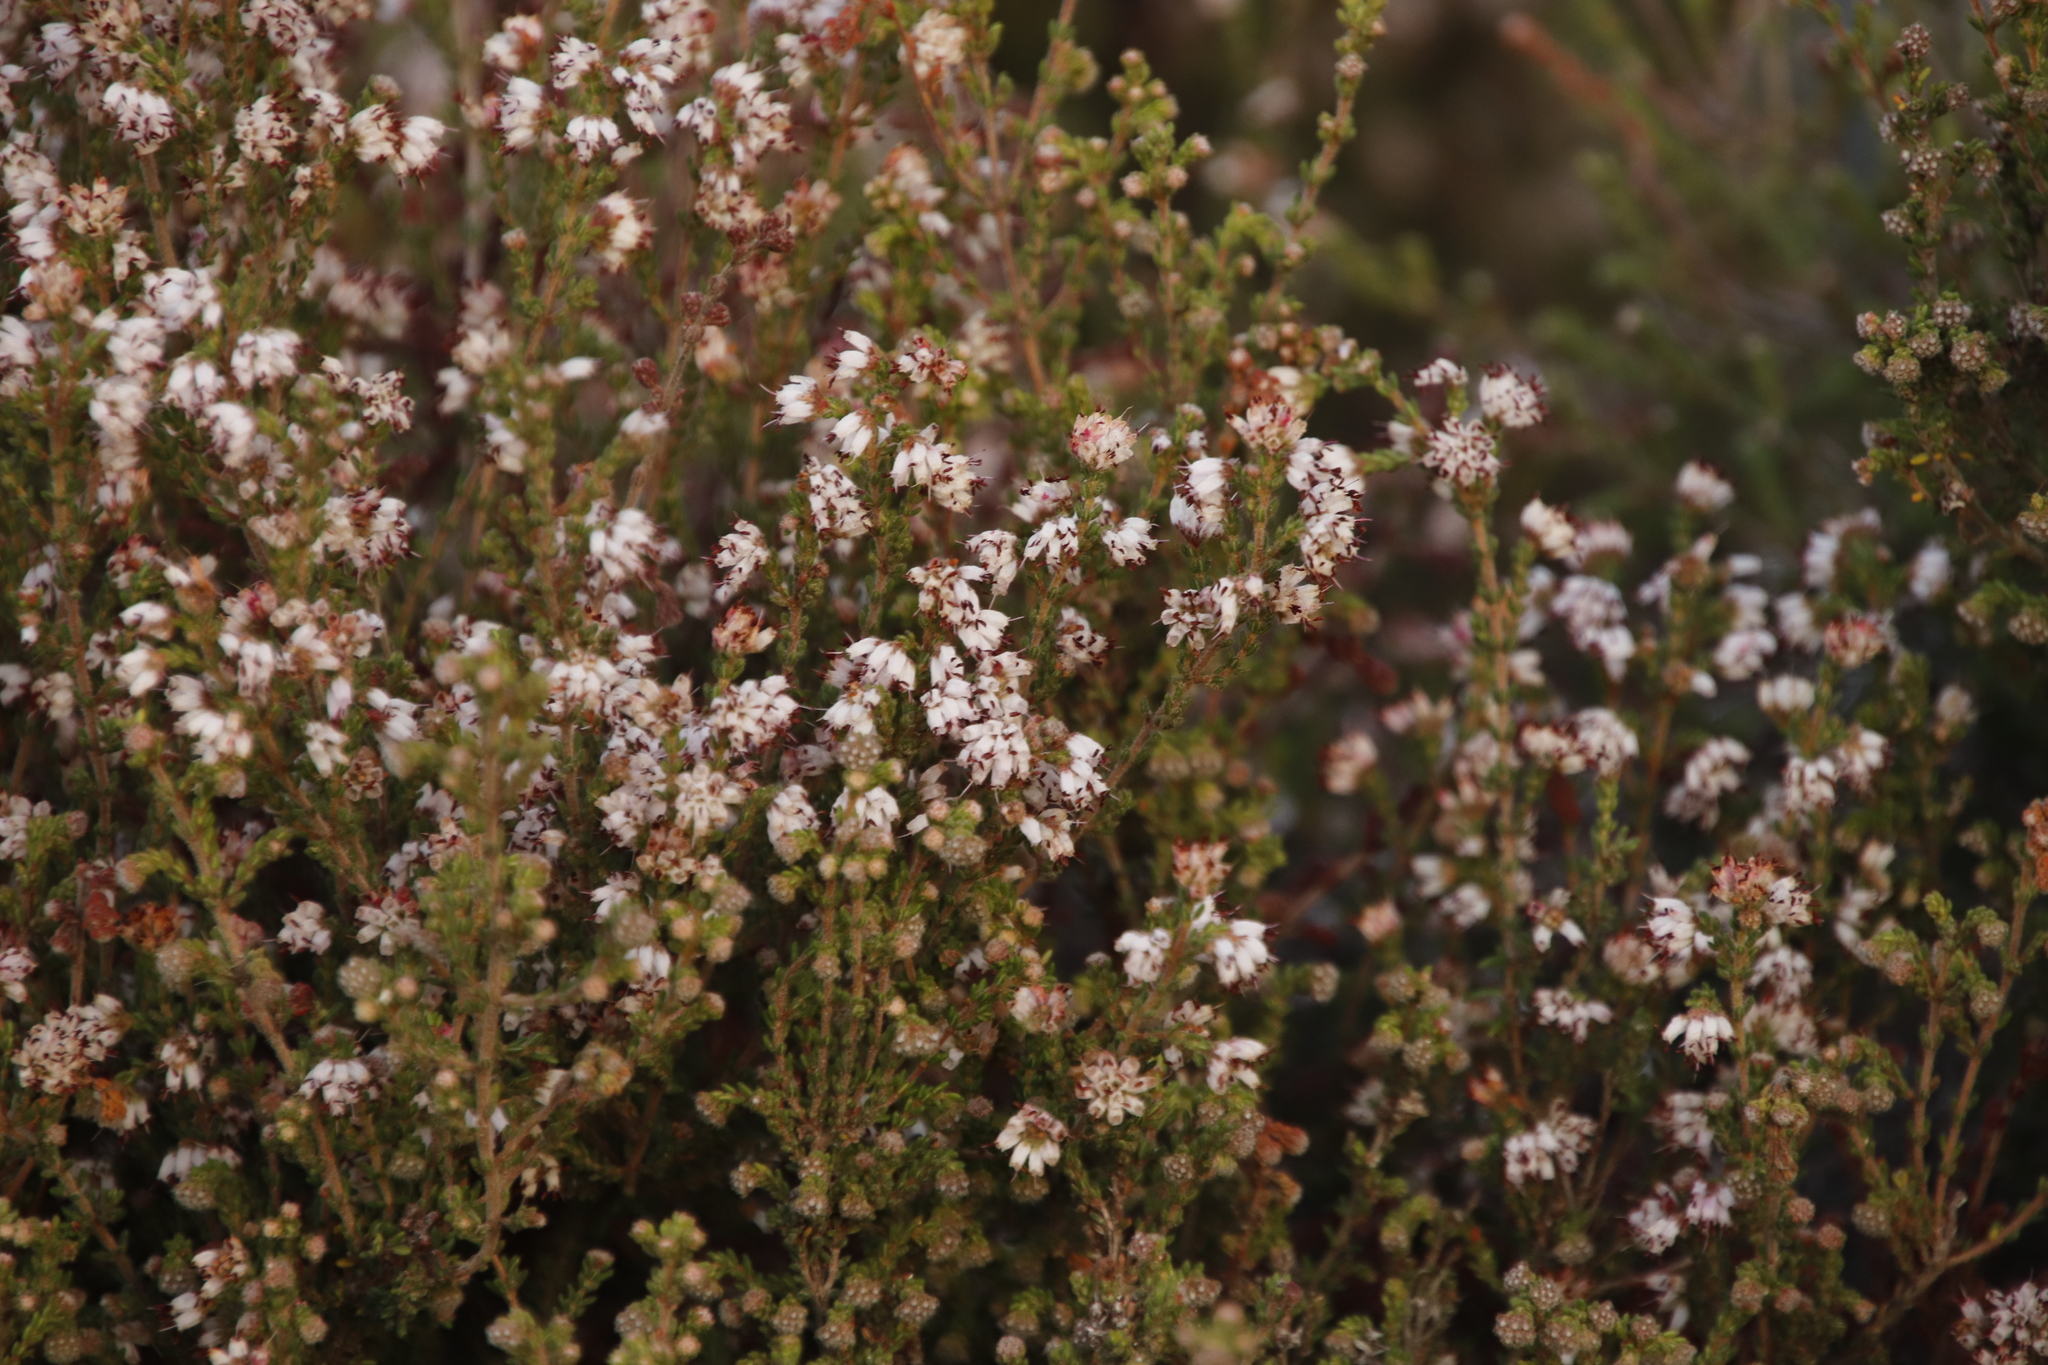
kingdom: Plantae
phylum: Tracheophyta
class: Magnoliopsida
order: Ericales
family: Ericaceae
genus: Erica
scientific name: Erica ericoides
